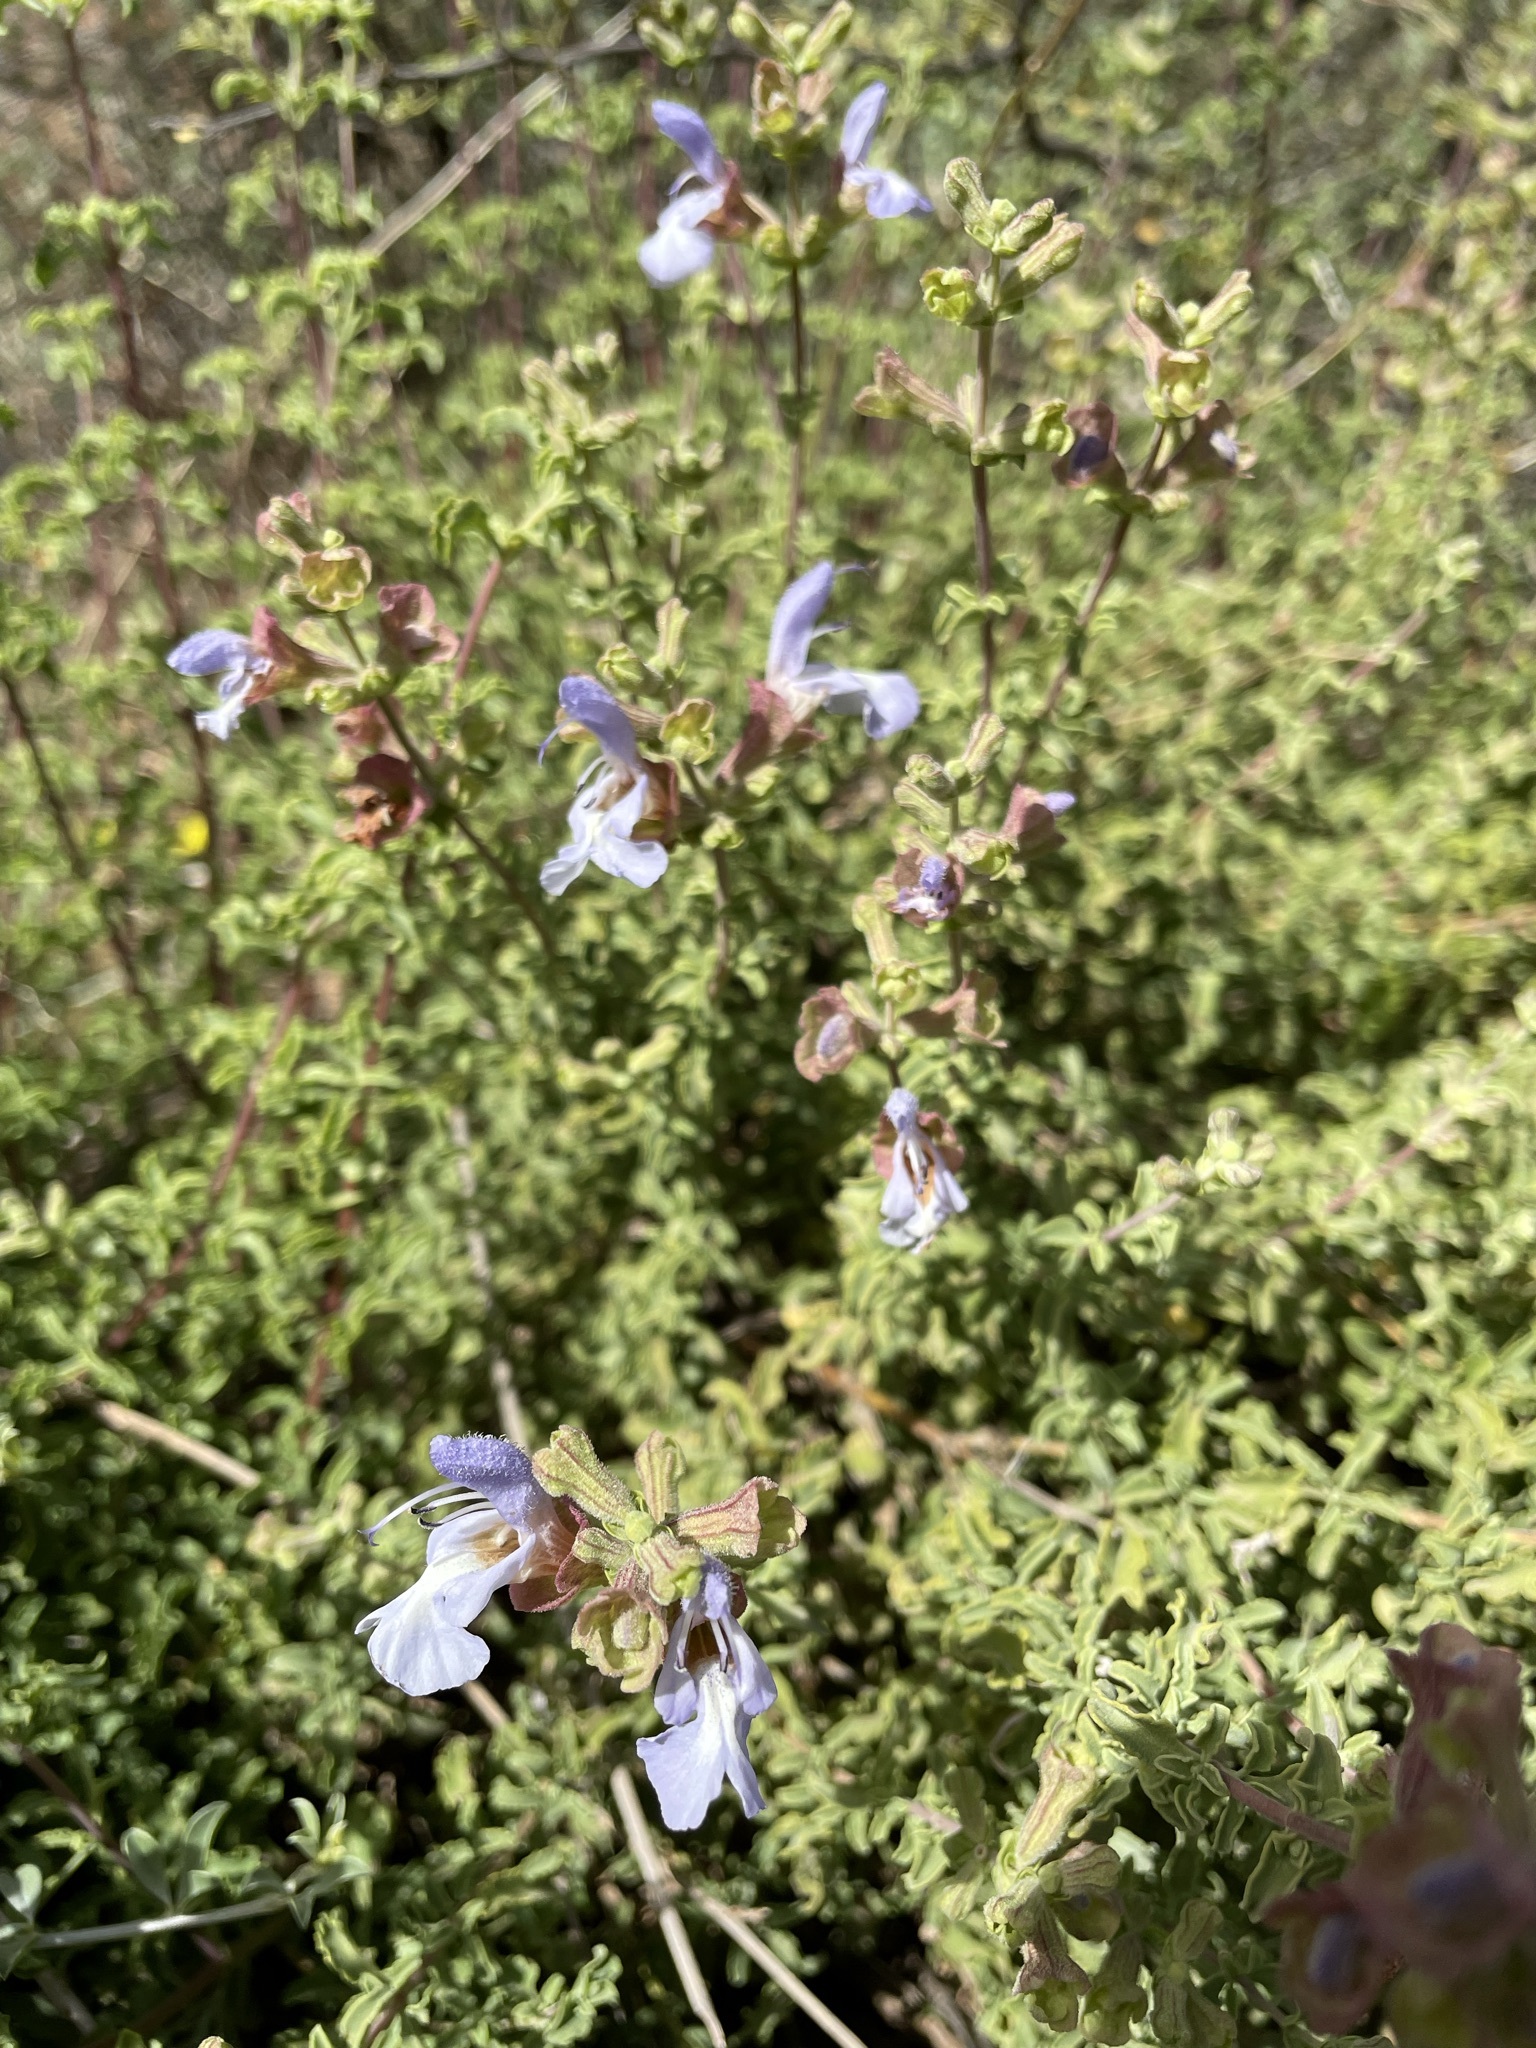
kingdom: Plantae
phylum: Tracheophyta
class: Magnoliopsida
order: Lamiales
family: Lamiaceae
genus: Salvia
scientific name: Salvia dentata
